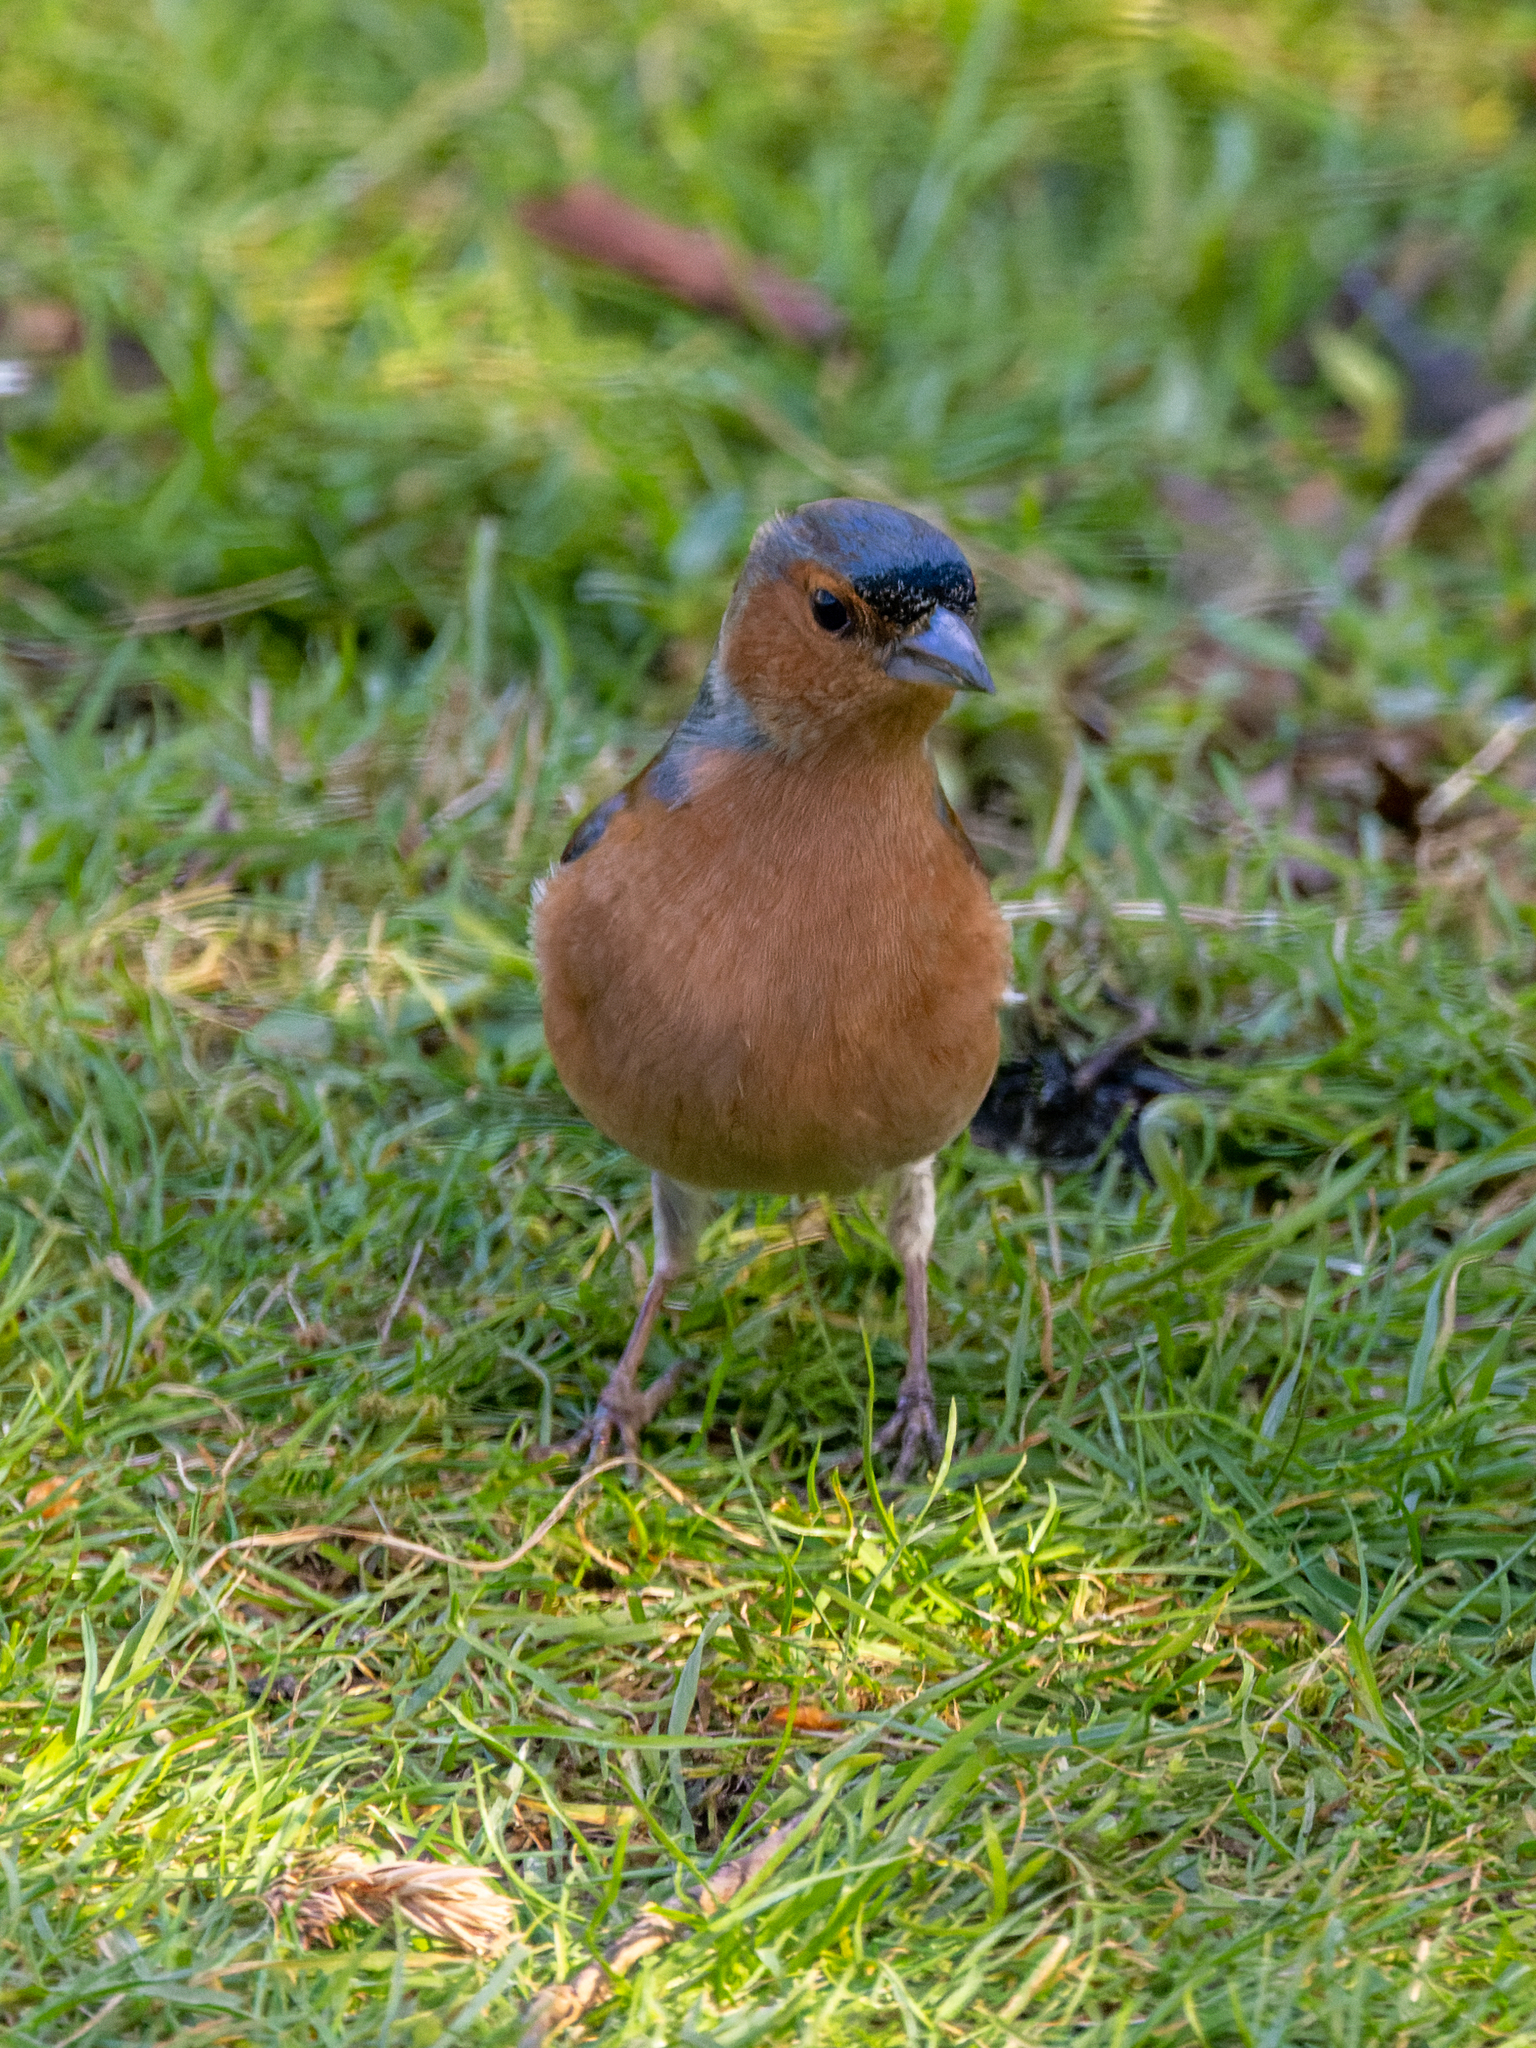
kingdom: Animalia
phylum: Chordata
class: Aves
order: Passeriformes
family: Fringillidae
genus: Fringilla
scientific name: Fringilla coelebs
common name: Common chaffinch
